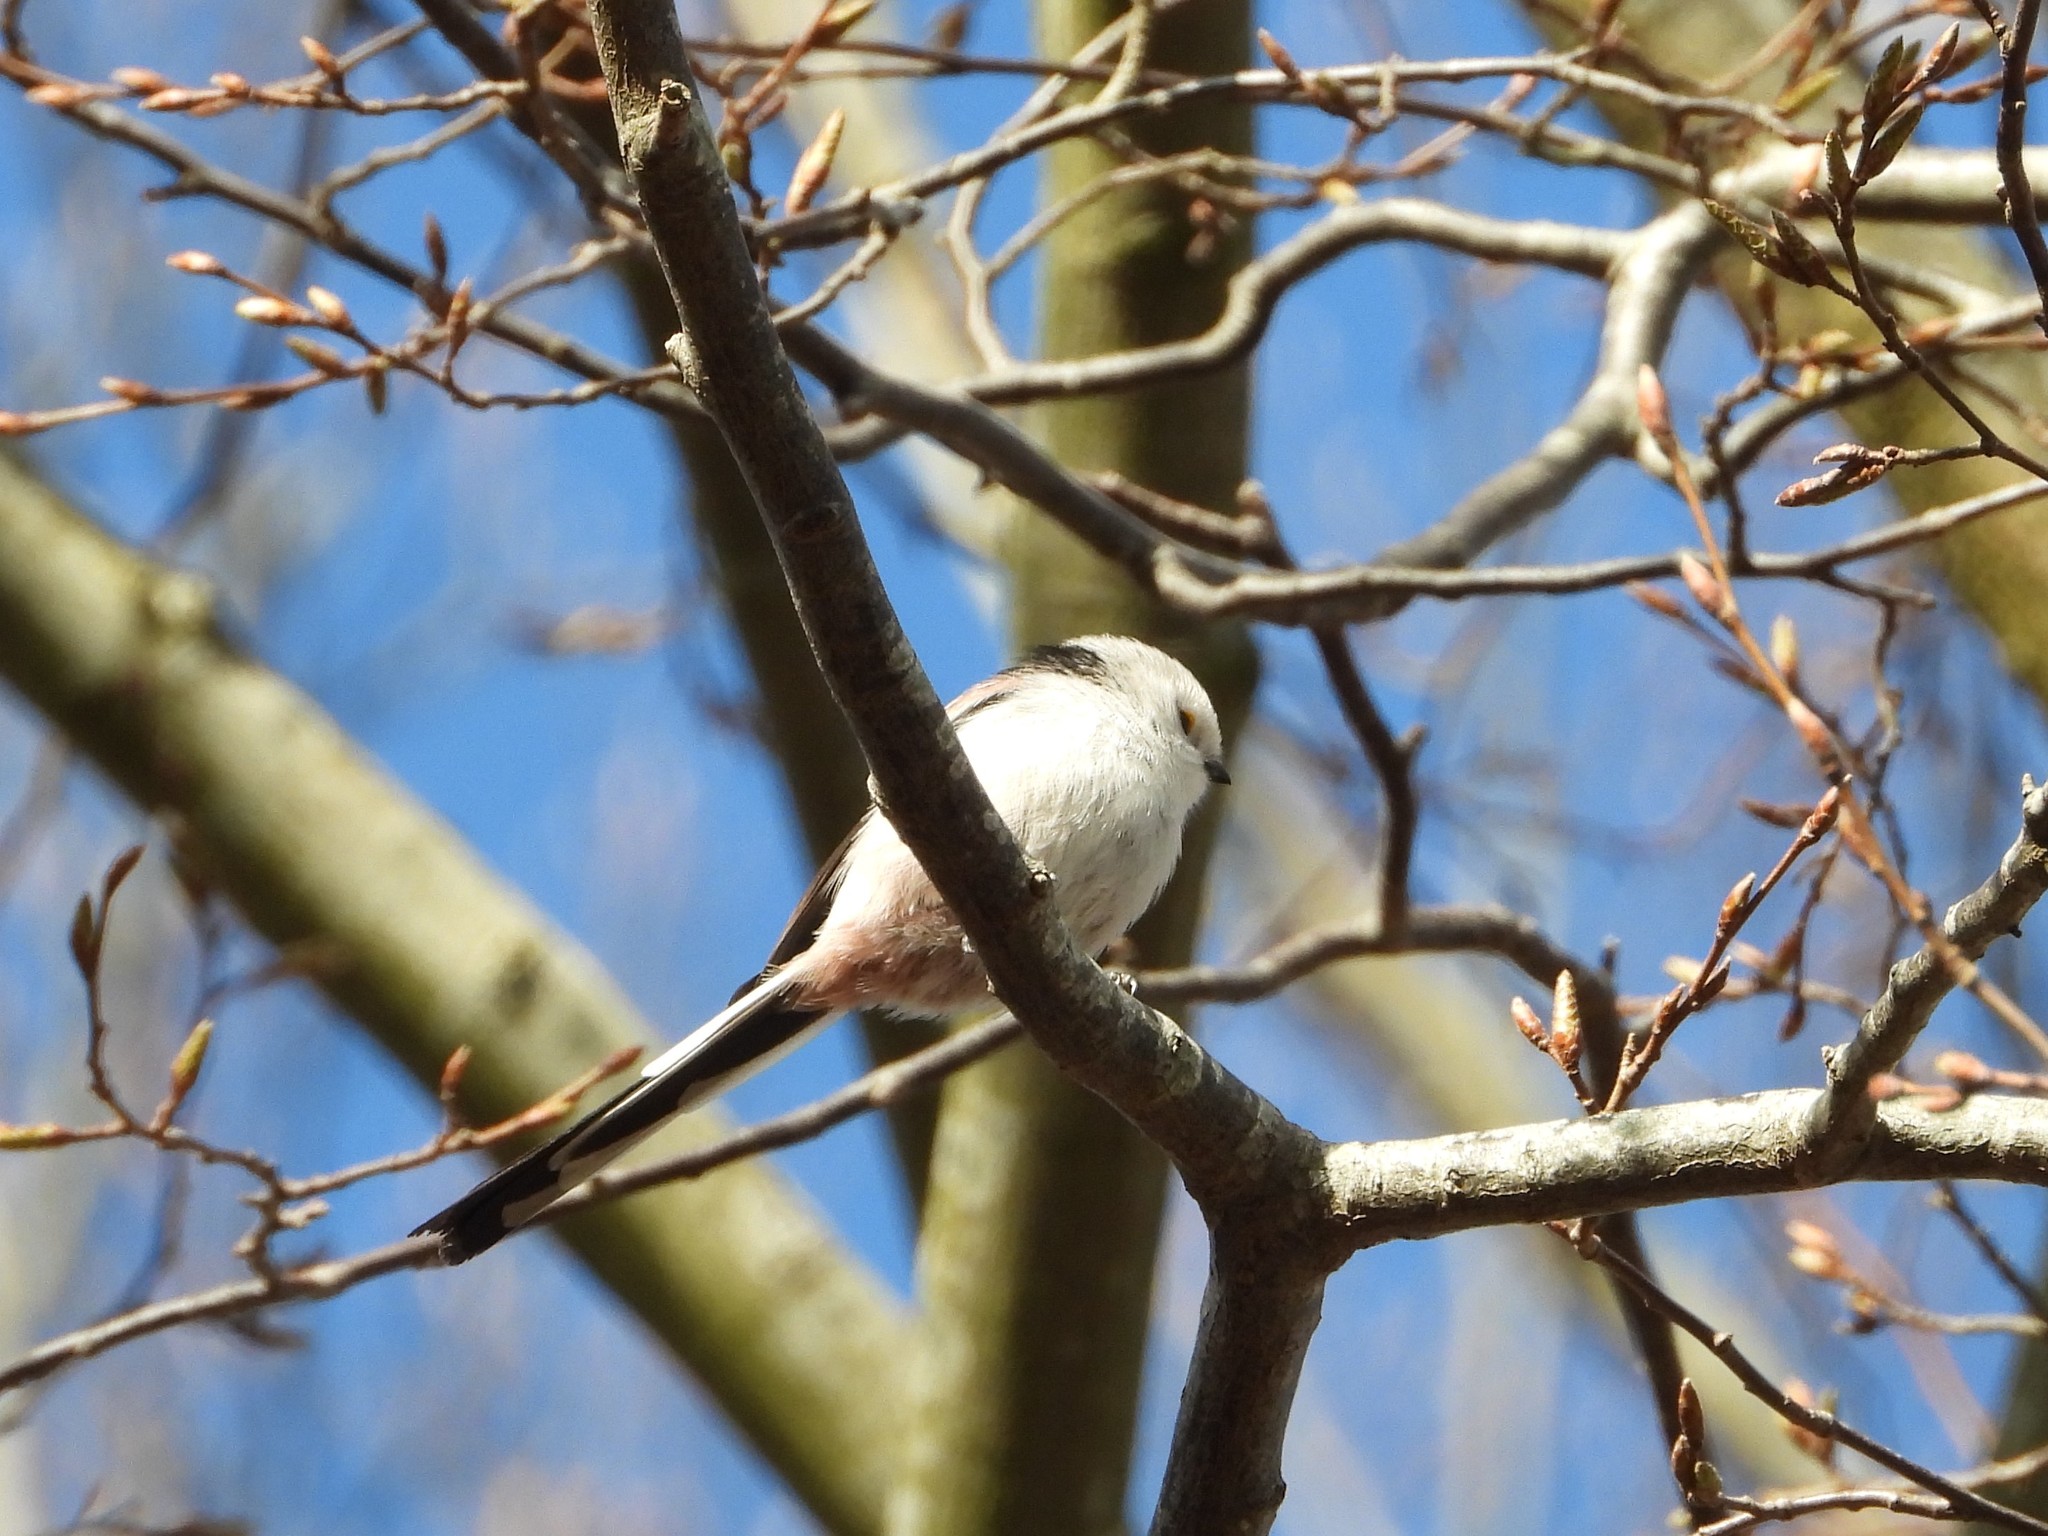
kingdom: Animalia
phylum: Chordata
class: Aves
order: Passeriformes
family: Aegithalidae
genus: Aegithalos
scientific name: Aegithalos caudatus
